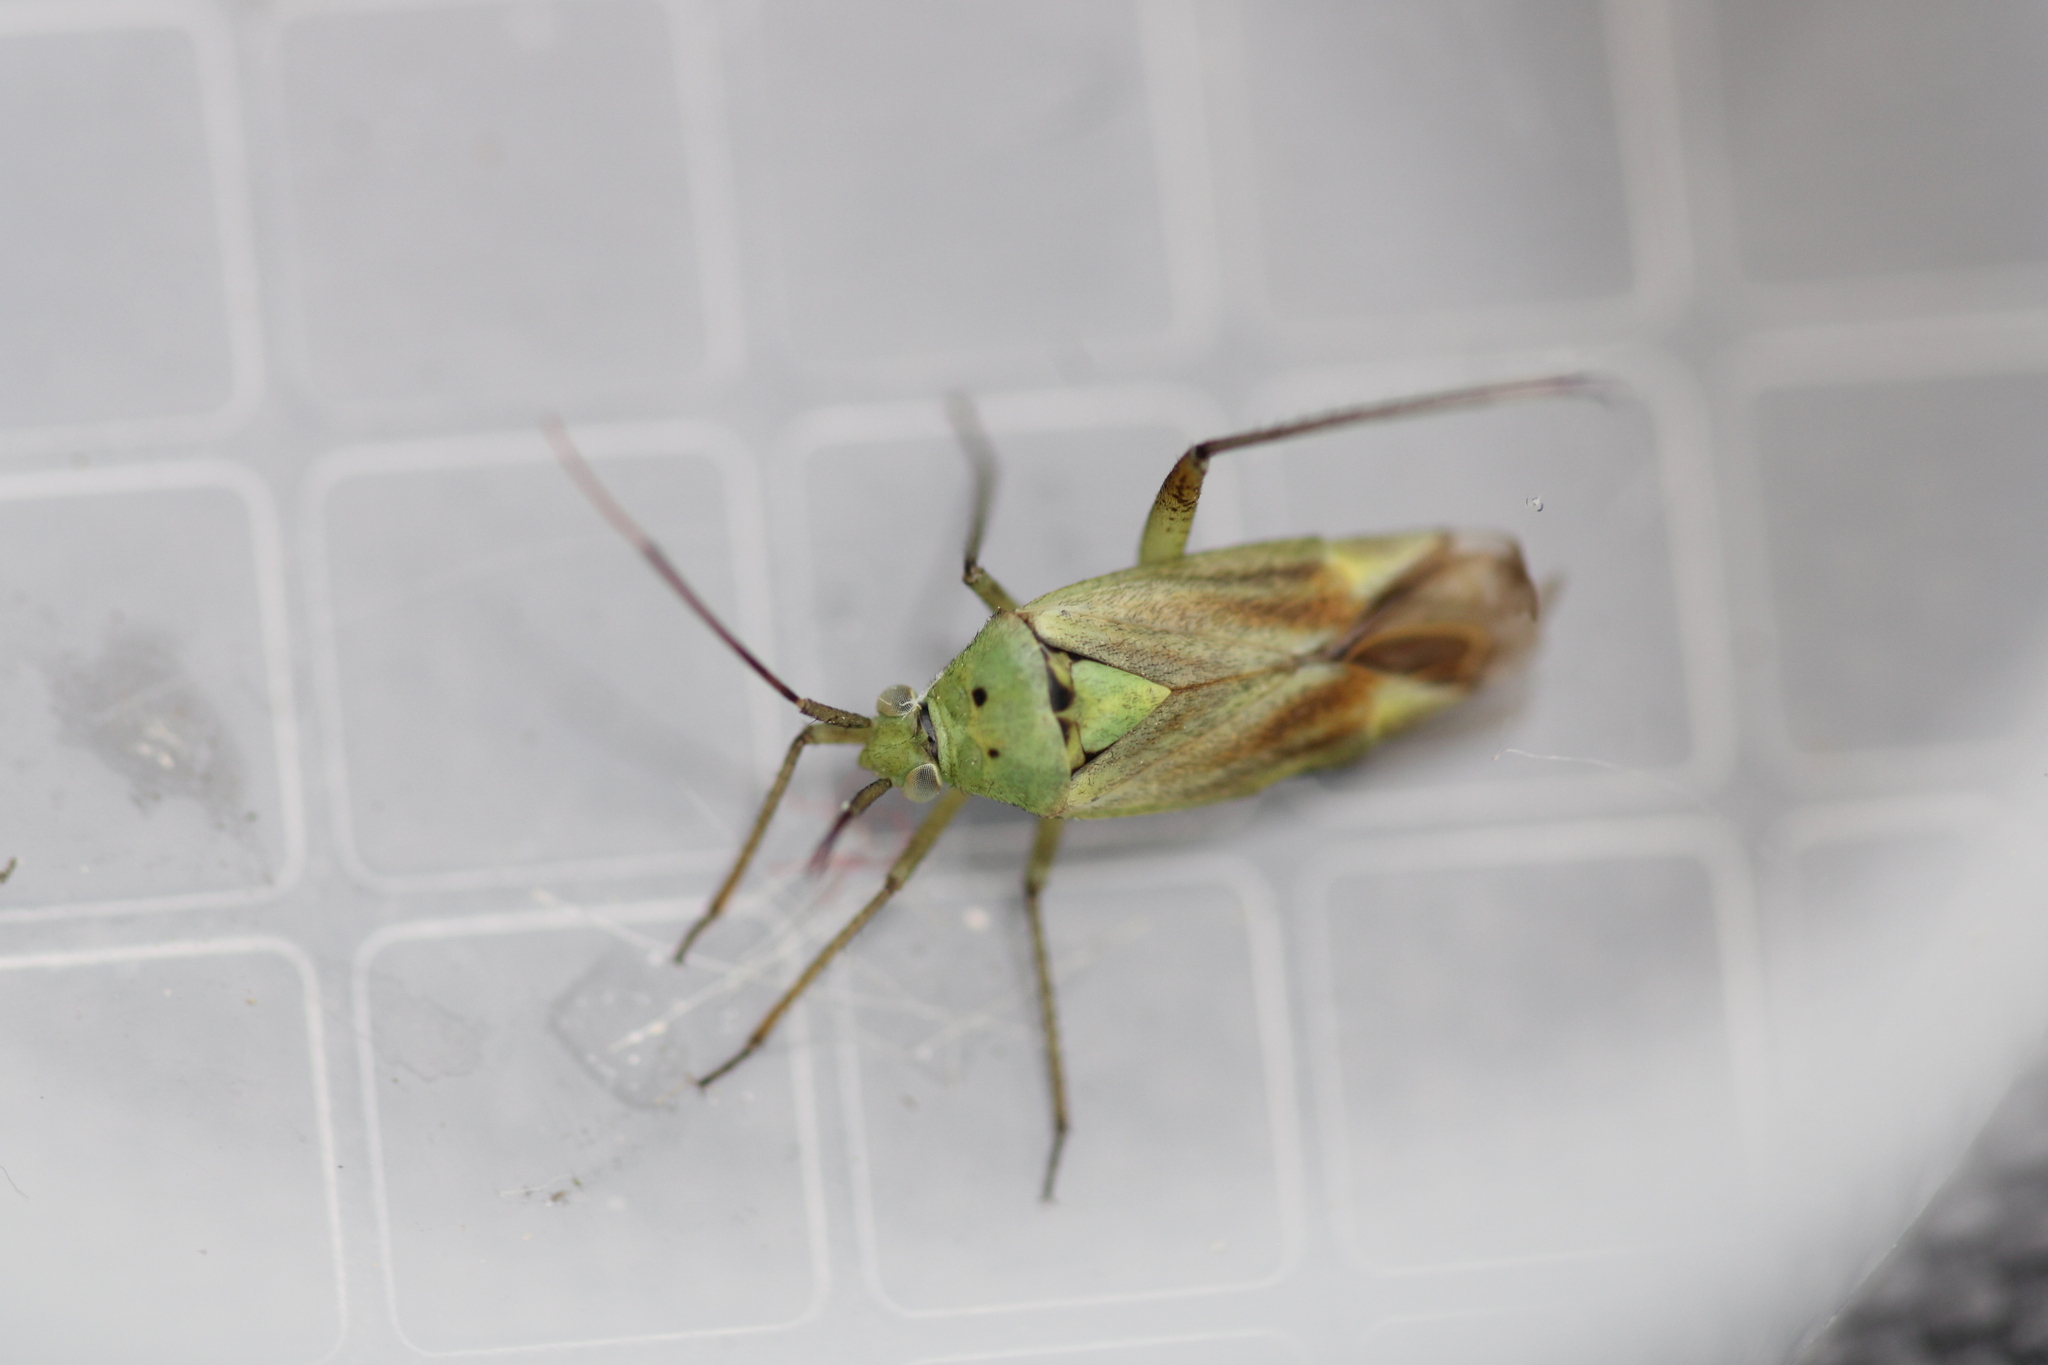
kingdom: Animalia
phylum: Arthropoda
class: Insecta
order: Hemiptera
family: Miridae
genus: Closterotomus
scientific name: Closterotomus norvegicus
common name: Plant bug
